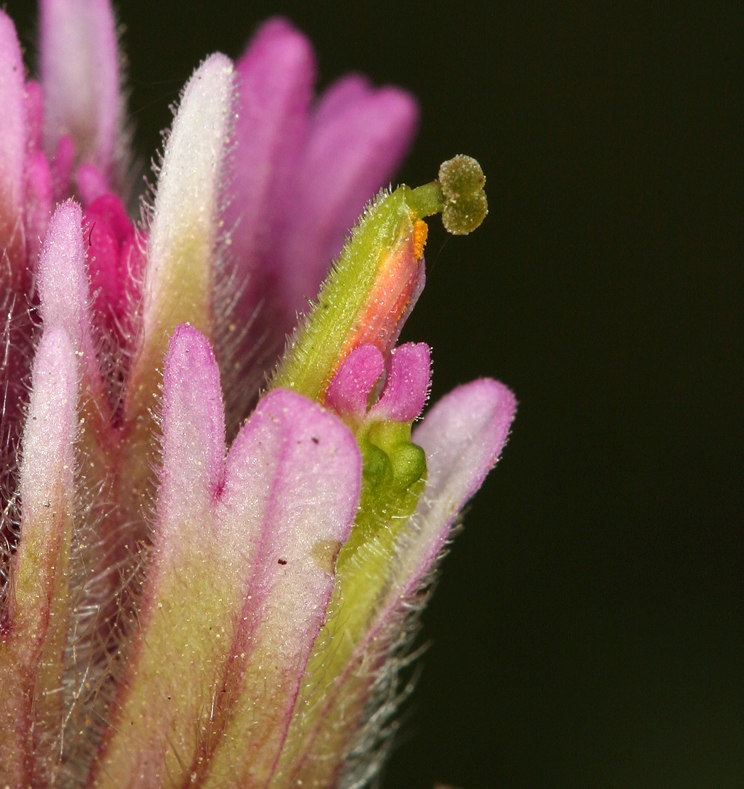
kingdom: Plantae
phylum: Tracheophyta
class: Magnoliopsida
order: Lamiales
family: Orobanchaceae
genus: Castilleja
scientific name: Castilleja lemmonii
